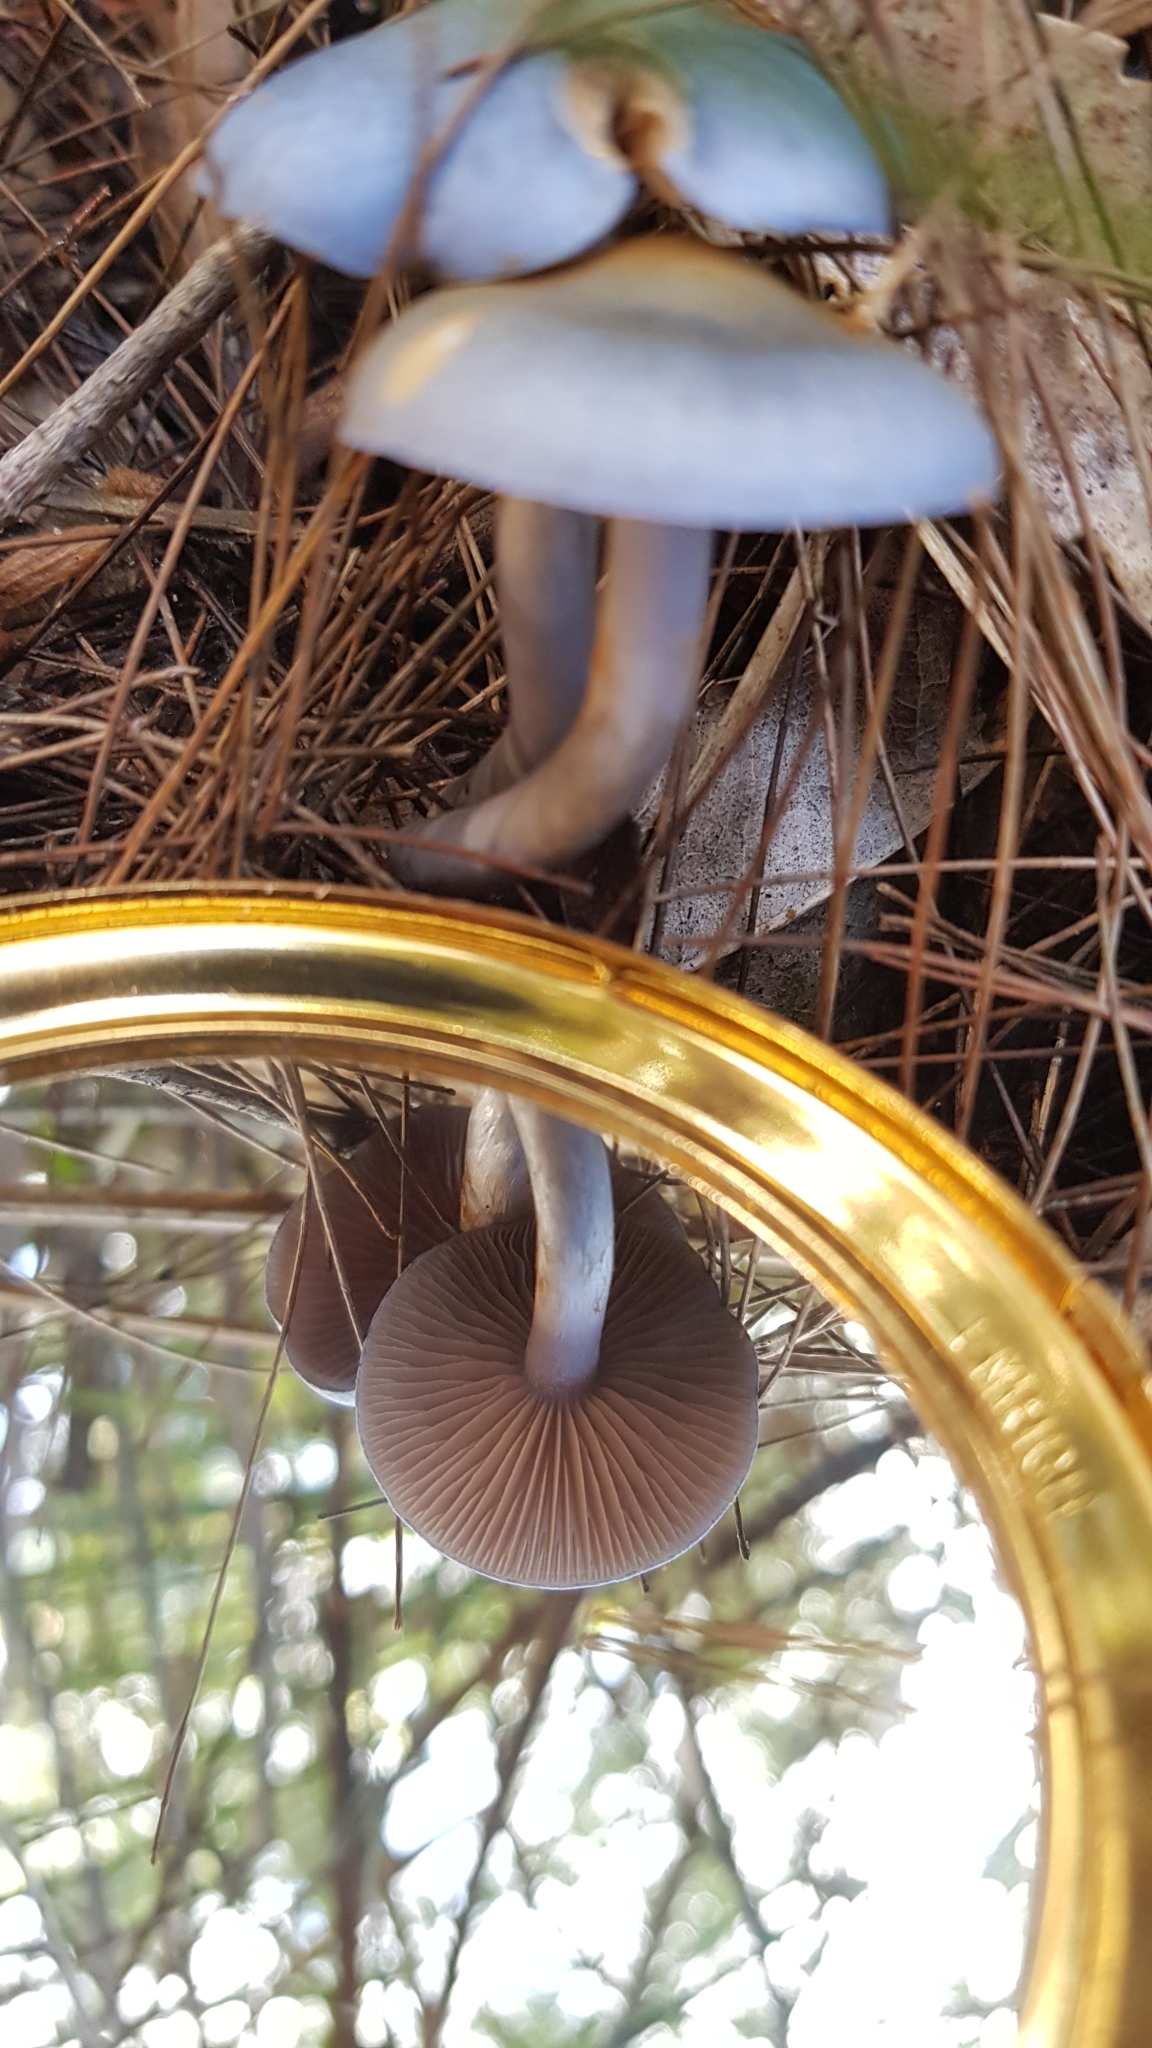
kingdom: Fungi
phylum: Basidiomycota
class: Agaricomycetes
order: Agaricales
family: Cortinariaceae
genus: Cortinarius
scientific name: Cortinarius rotundisporus
